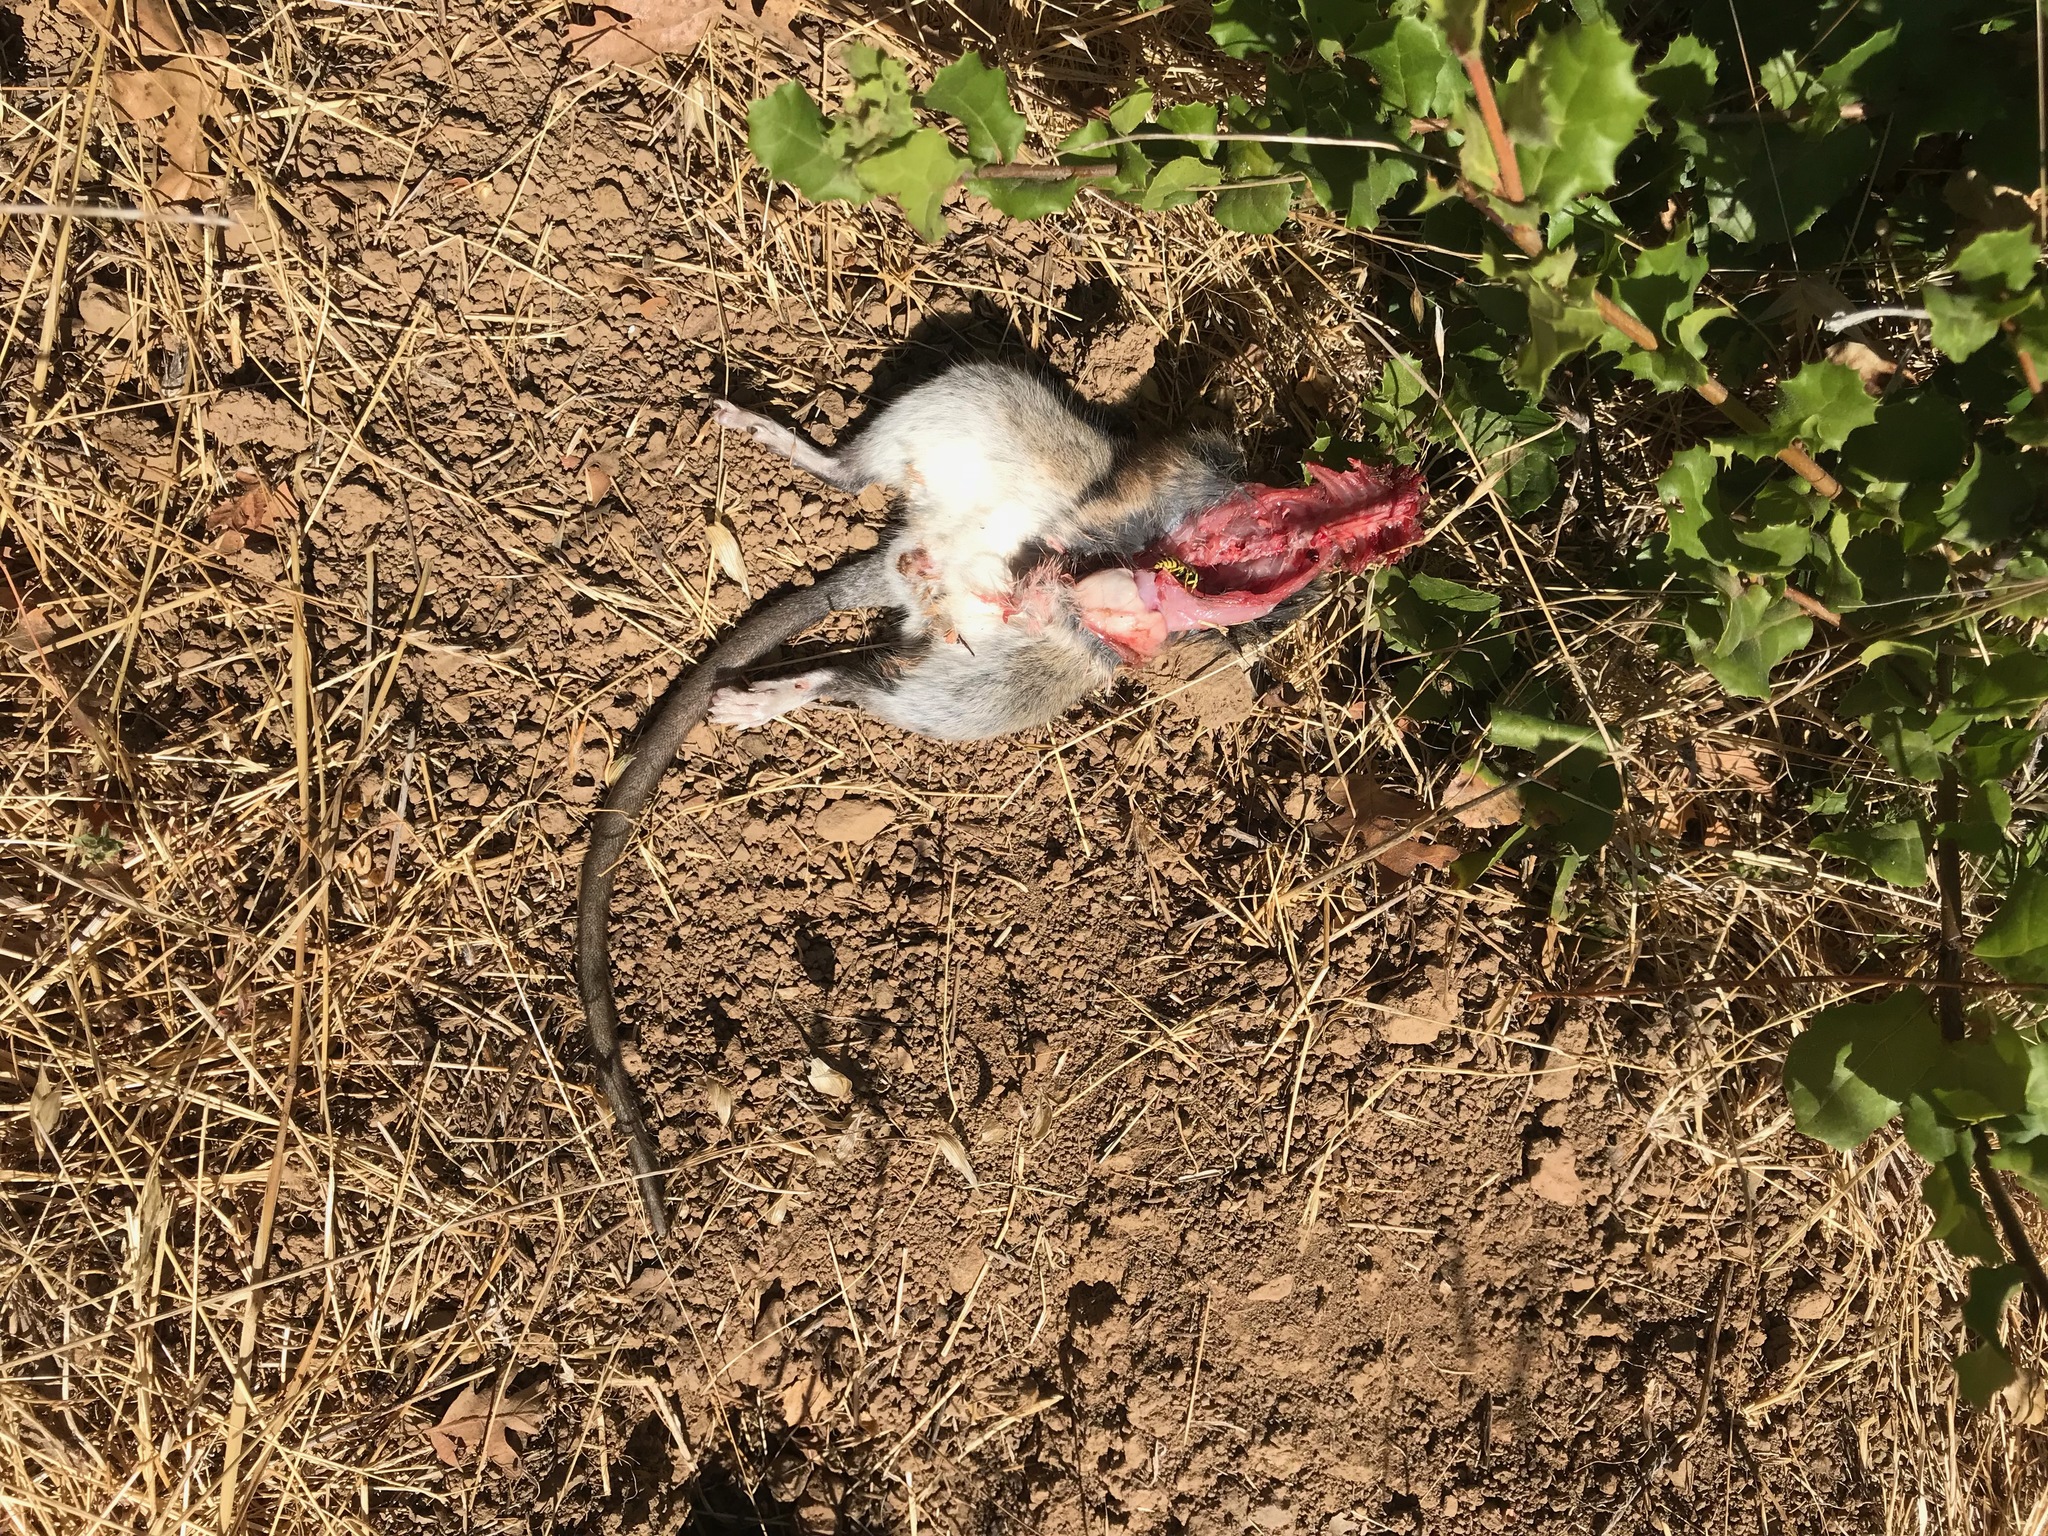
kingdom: Animalia
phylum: Chordata
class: Mammalia
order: Rodentia
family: Cricetidae
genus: Neotoma
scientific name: Neotoma fuscipes
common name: Dusky-footed woodrat
